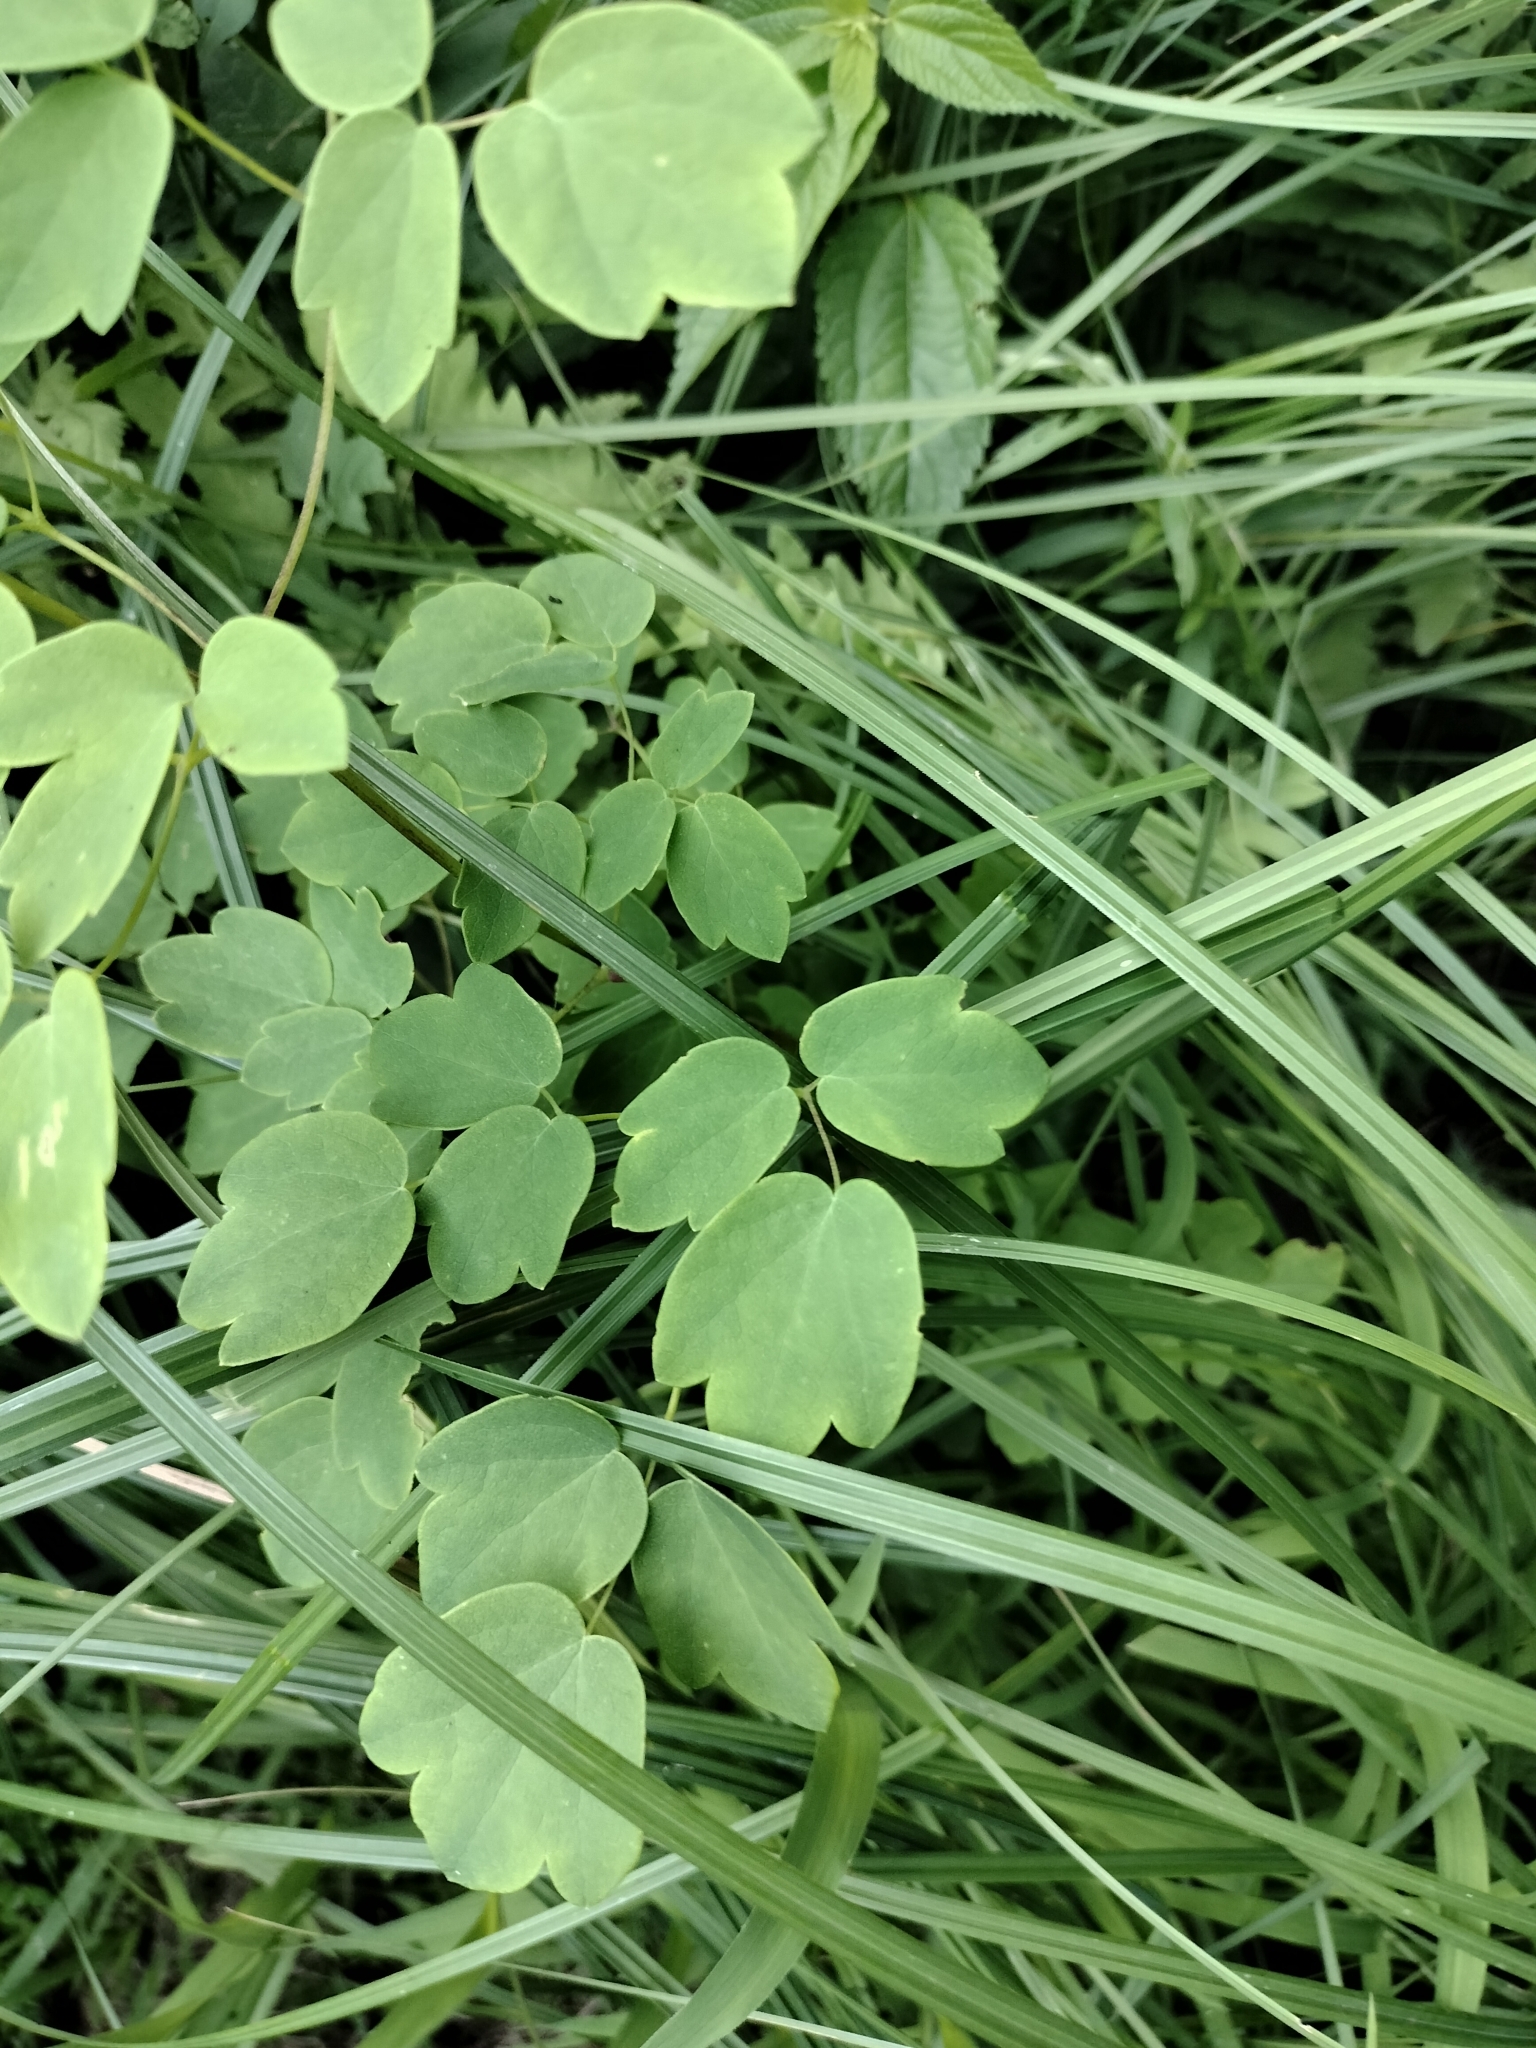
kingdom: Plantae
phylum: Tracheophyta
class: Magnoliopsida
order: Ranunculales
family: Ranunculaceae
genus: Thalictrum
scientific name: Thalictrum dasycarpum
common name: Purple meadow-rue
